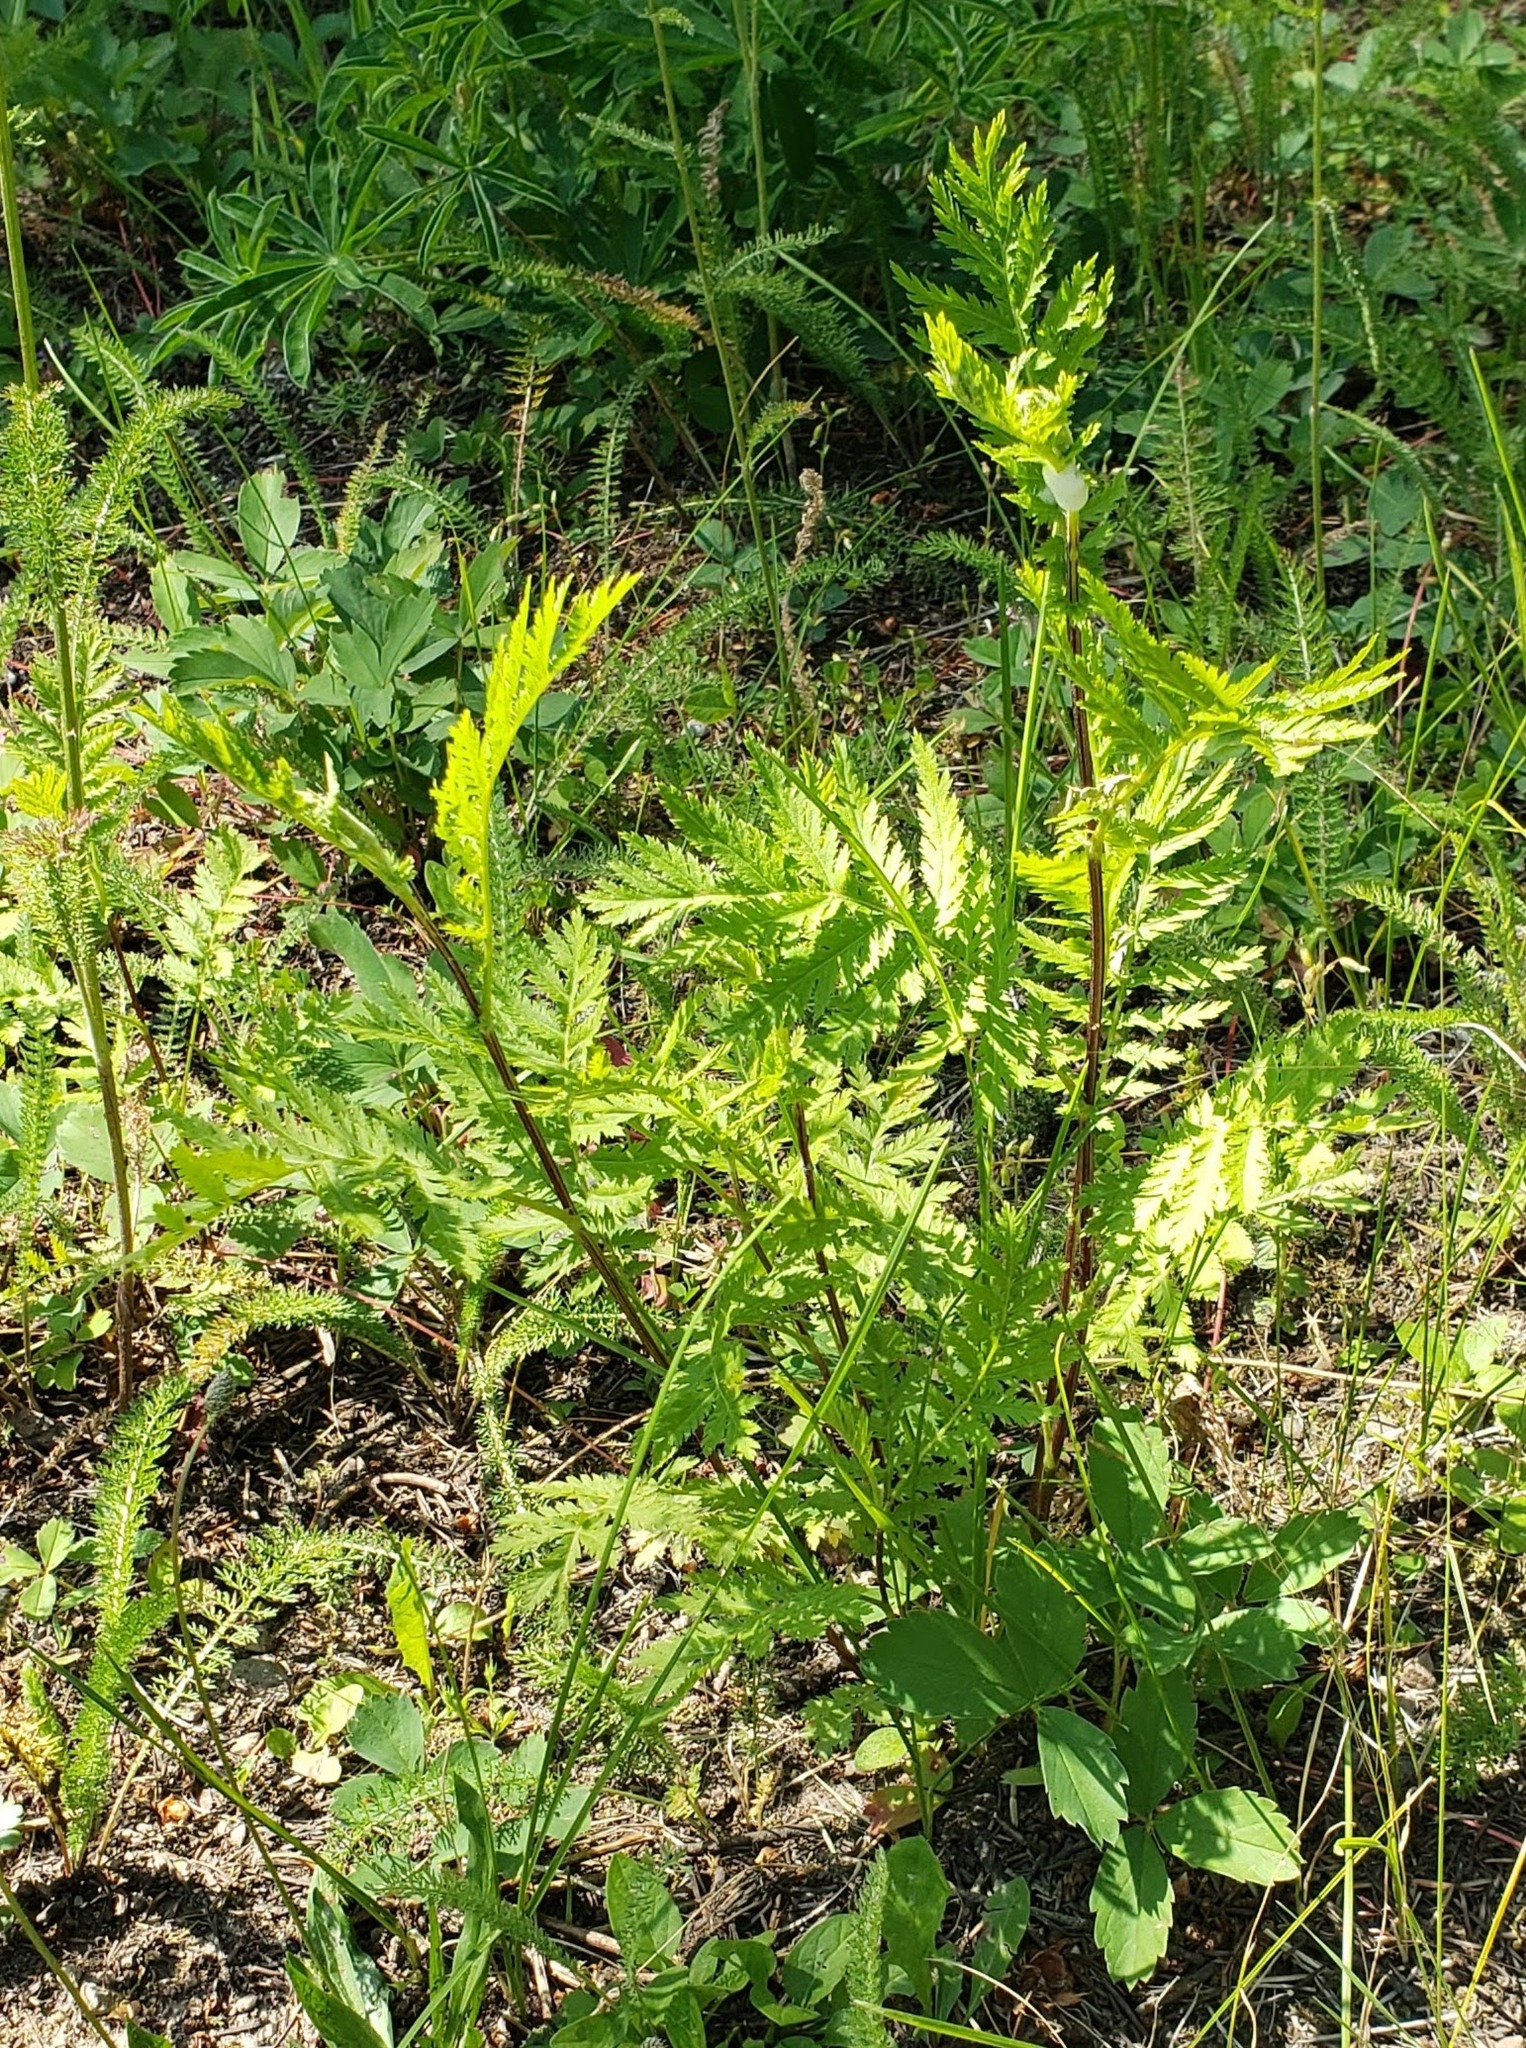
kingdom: Plantae
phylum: Tracheophyta
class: Magnoliopsida
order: Asterales
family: Asteraceae
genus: Tanacetum
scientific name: Tanacetum vulgare
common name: Common tansy
